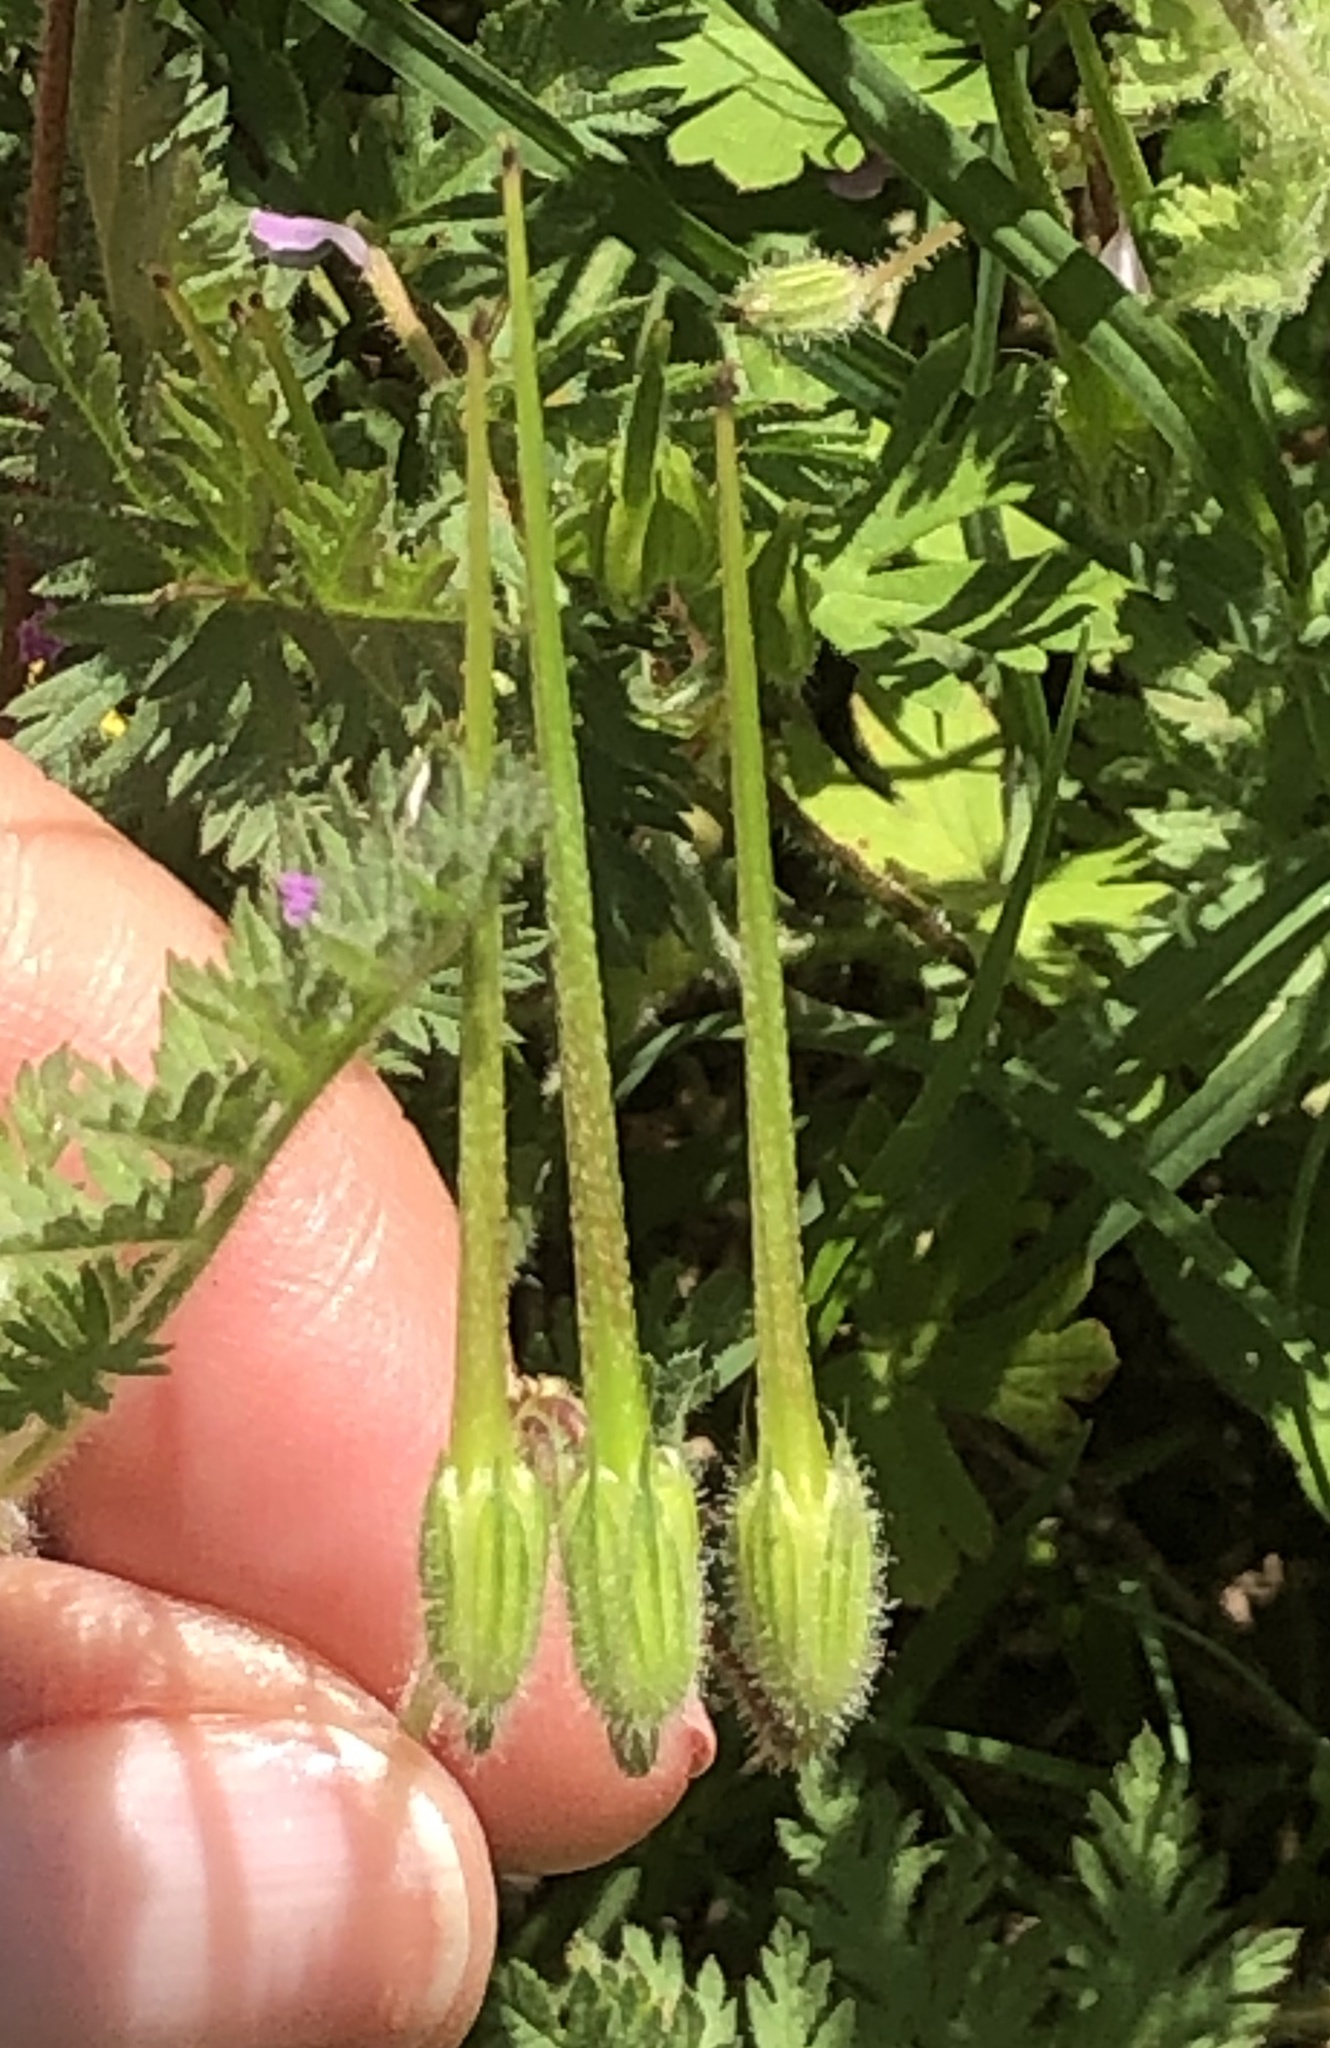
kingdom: Plantae
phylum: Tracheophyta
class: Magnoliopsida
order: Geraniales
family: Geraniaceae
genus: Erodium
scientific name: Erodium cicutarium
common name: Common stork's-bill
